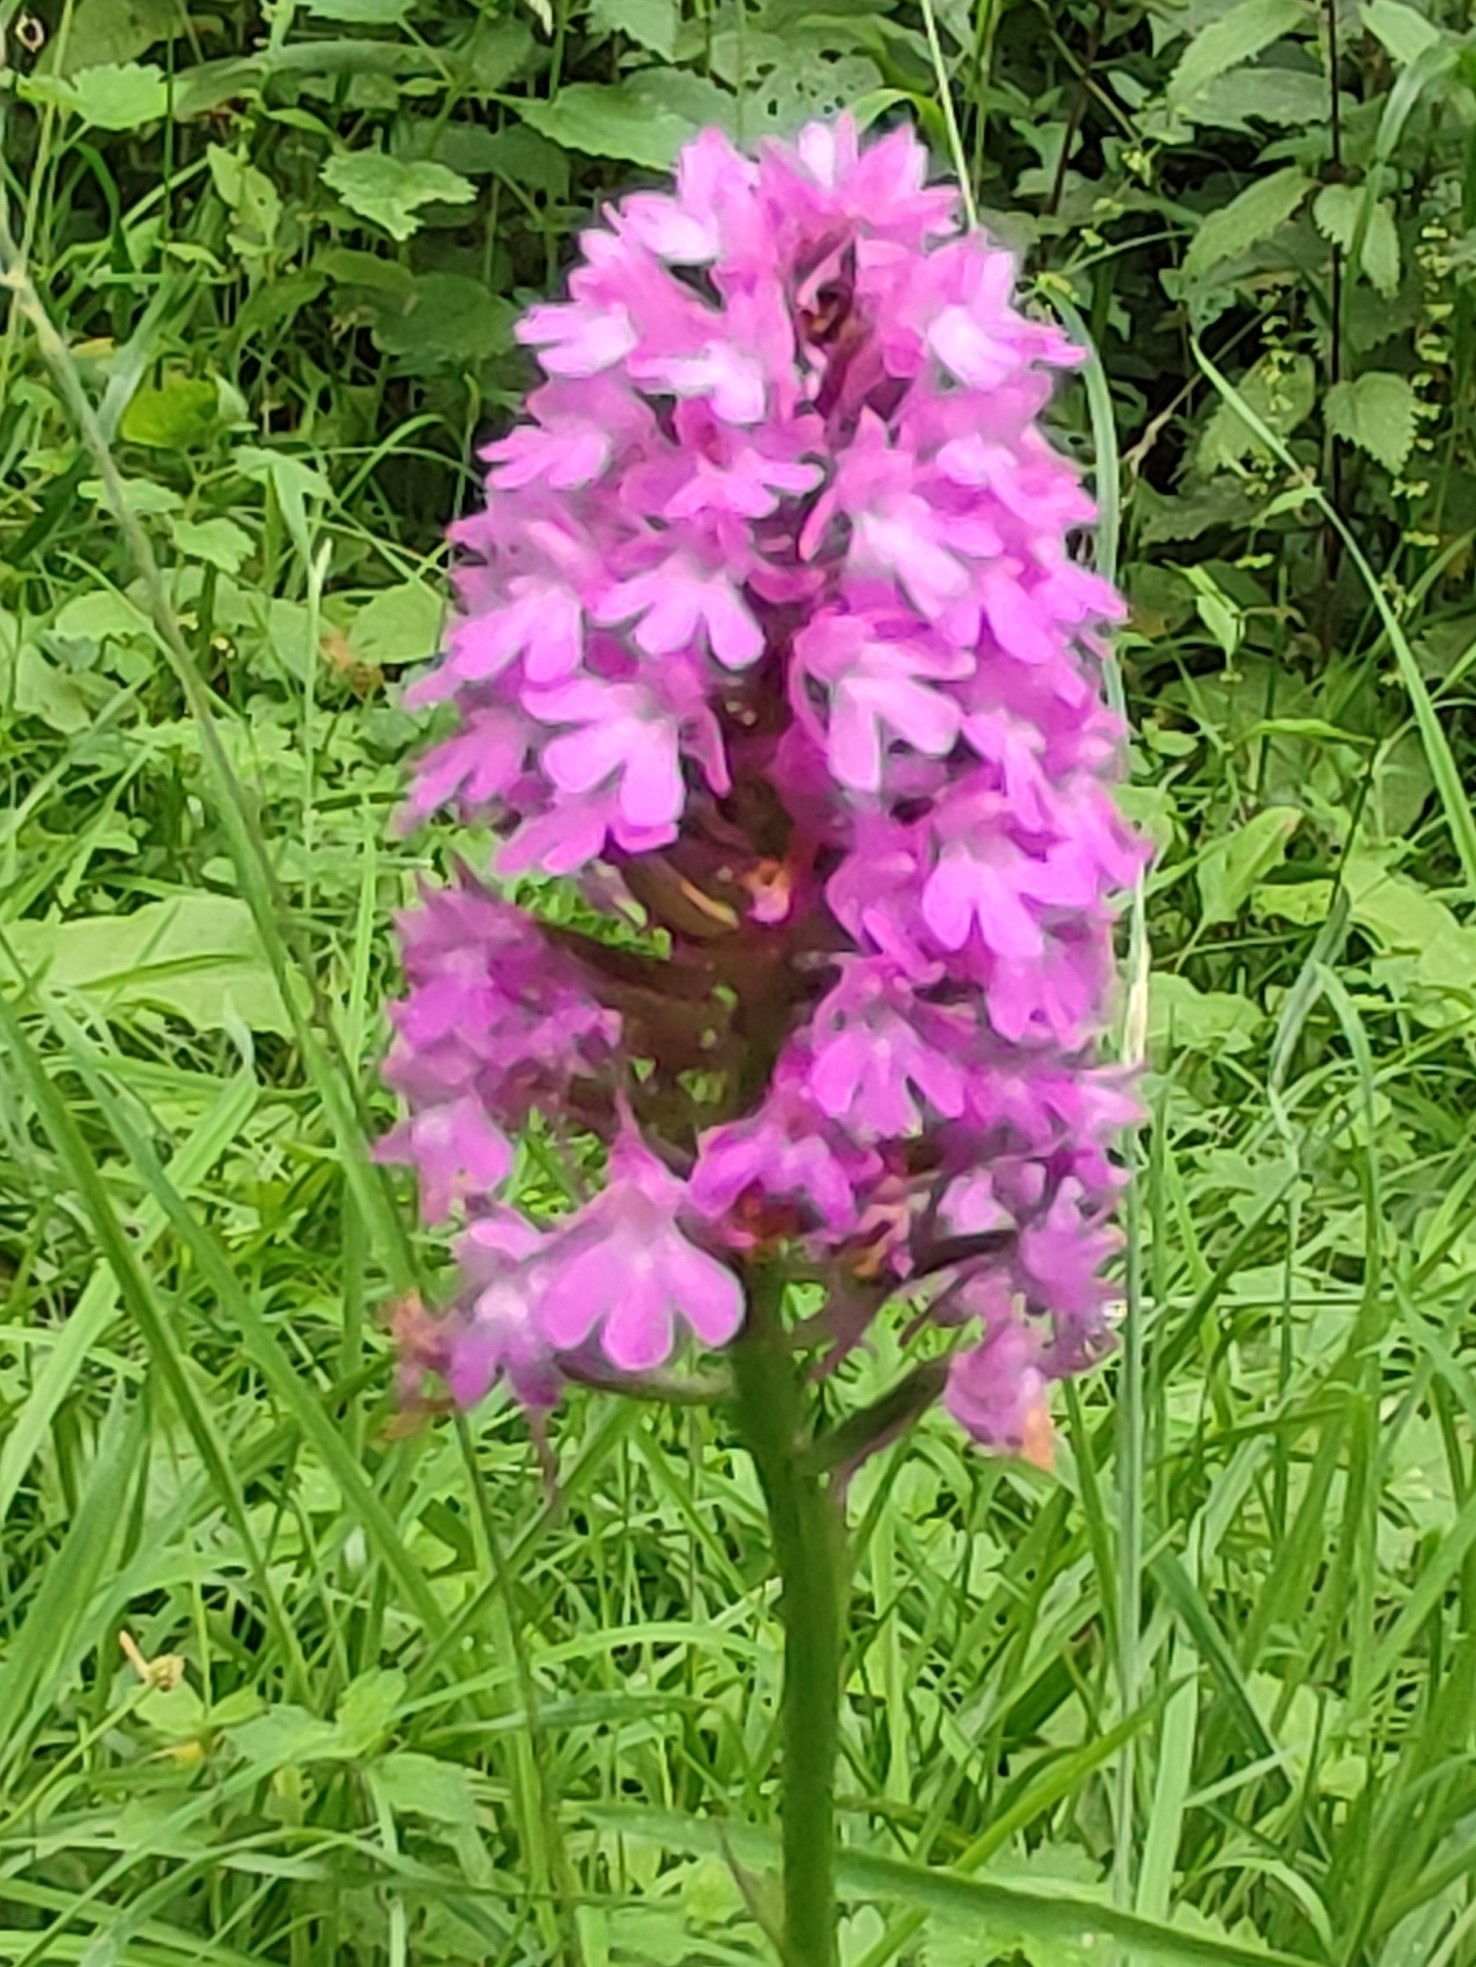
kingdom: Plantae
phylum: Tracheophyta
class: Liliopsida
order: Asparagales
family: Orchidaceae
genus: Anacamptis
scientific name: Anacamptis pyramidalis
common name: Pyramidal orchid
